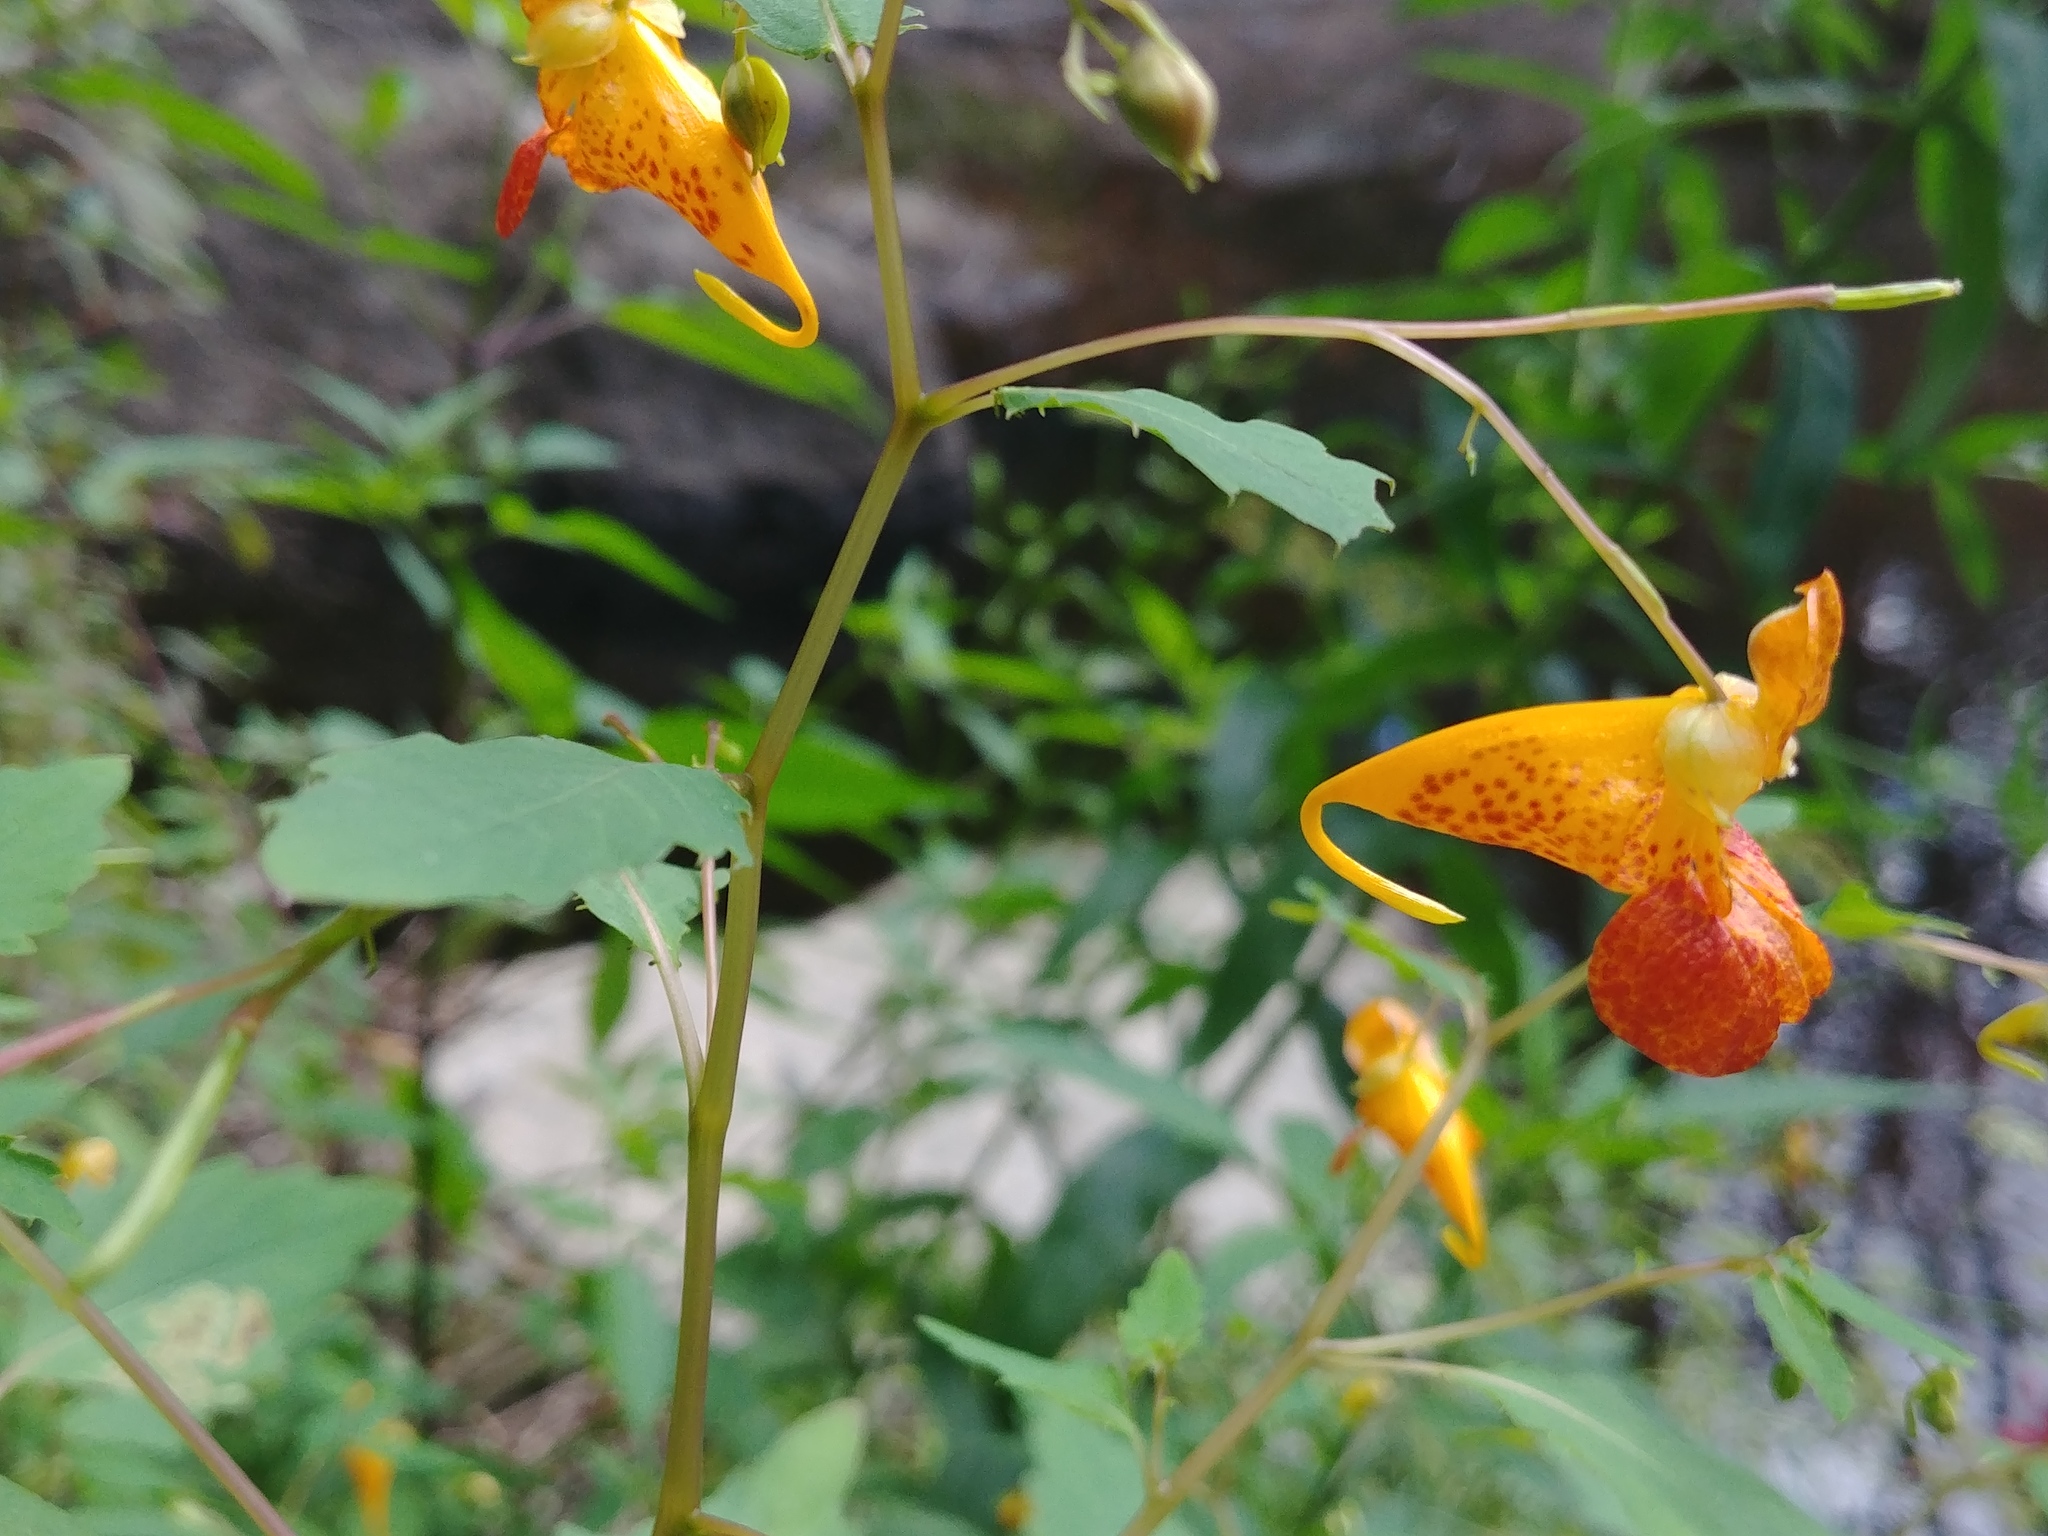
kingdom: Plantae
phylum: Tracheophyta
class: Magnoliopsida
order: Ericales
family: Balsaminaceae
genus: Impatiens
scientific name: Impatiens capensis
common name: Orange balsam
